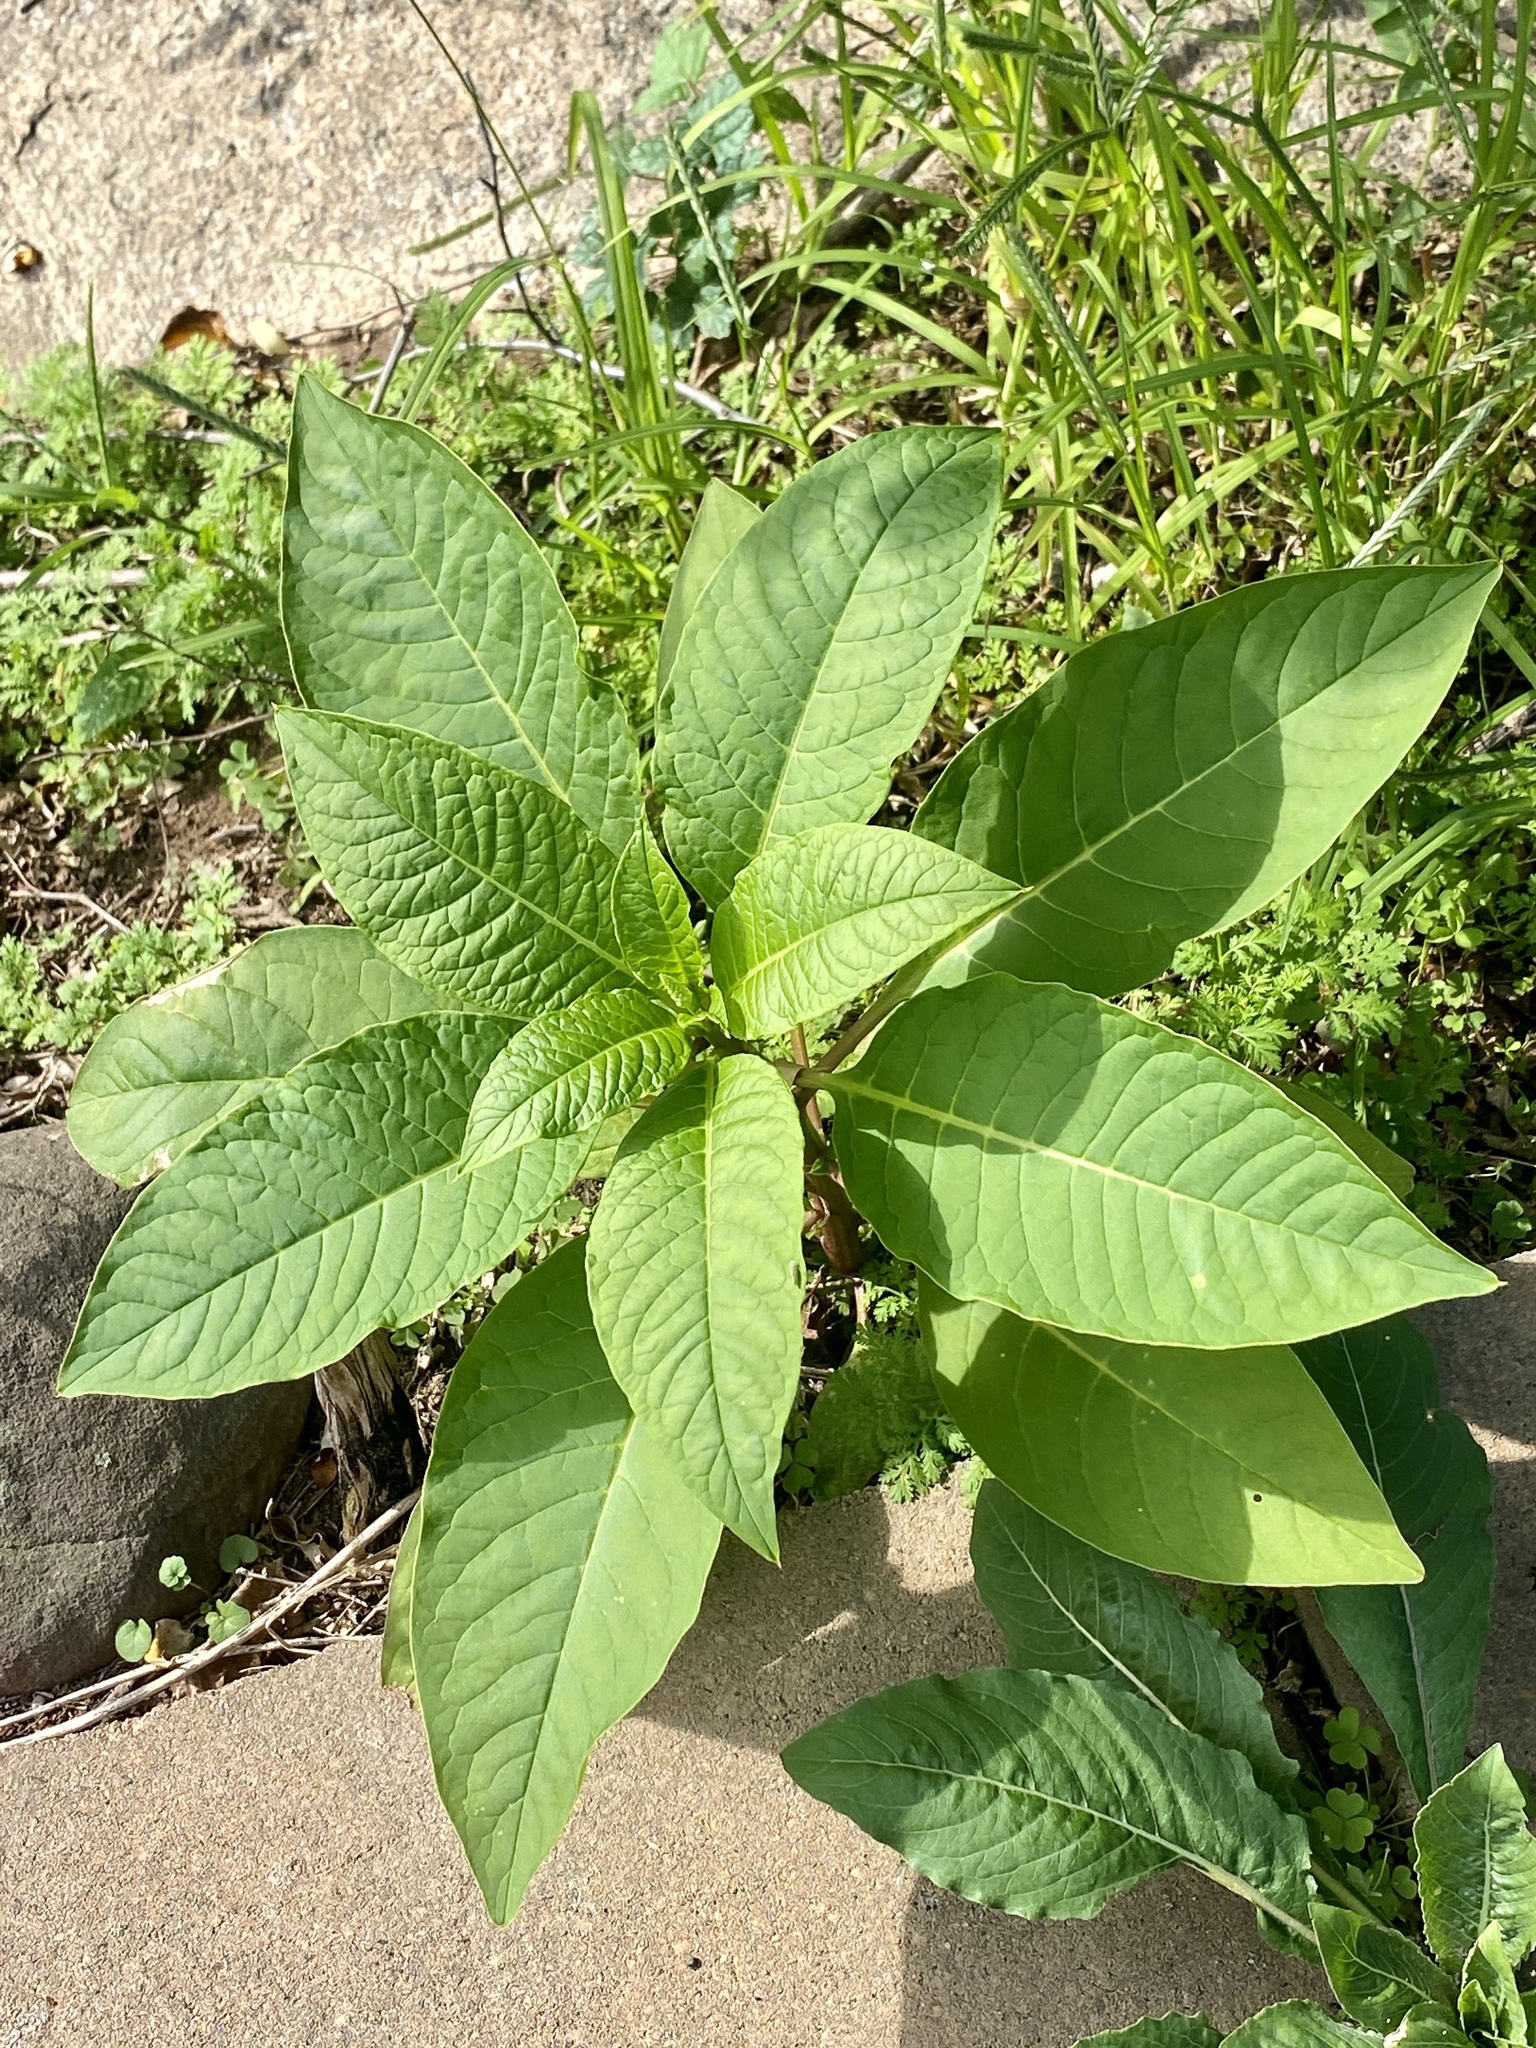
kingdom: Plantae
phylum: Tracheophyta
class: Magnoliopsida
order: Caryophyllales
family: Phytolaccaceae
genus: Phytolacca
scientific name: Phytolacca americana
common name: American pokeweed
